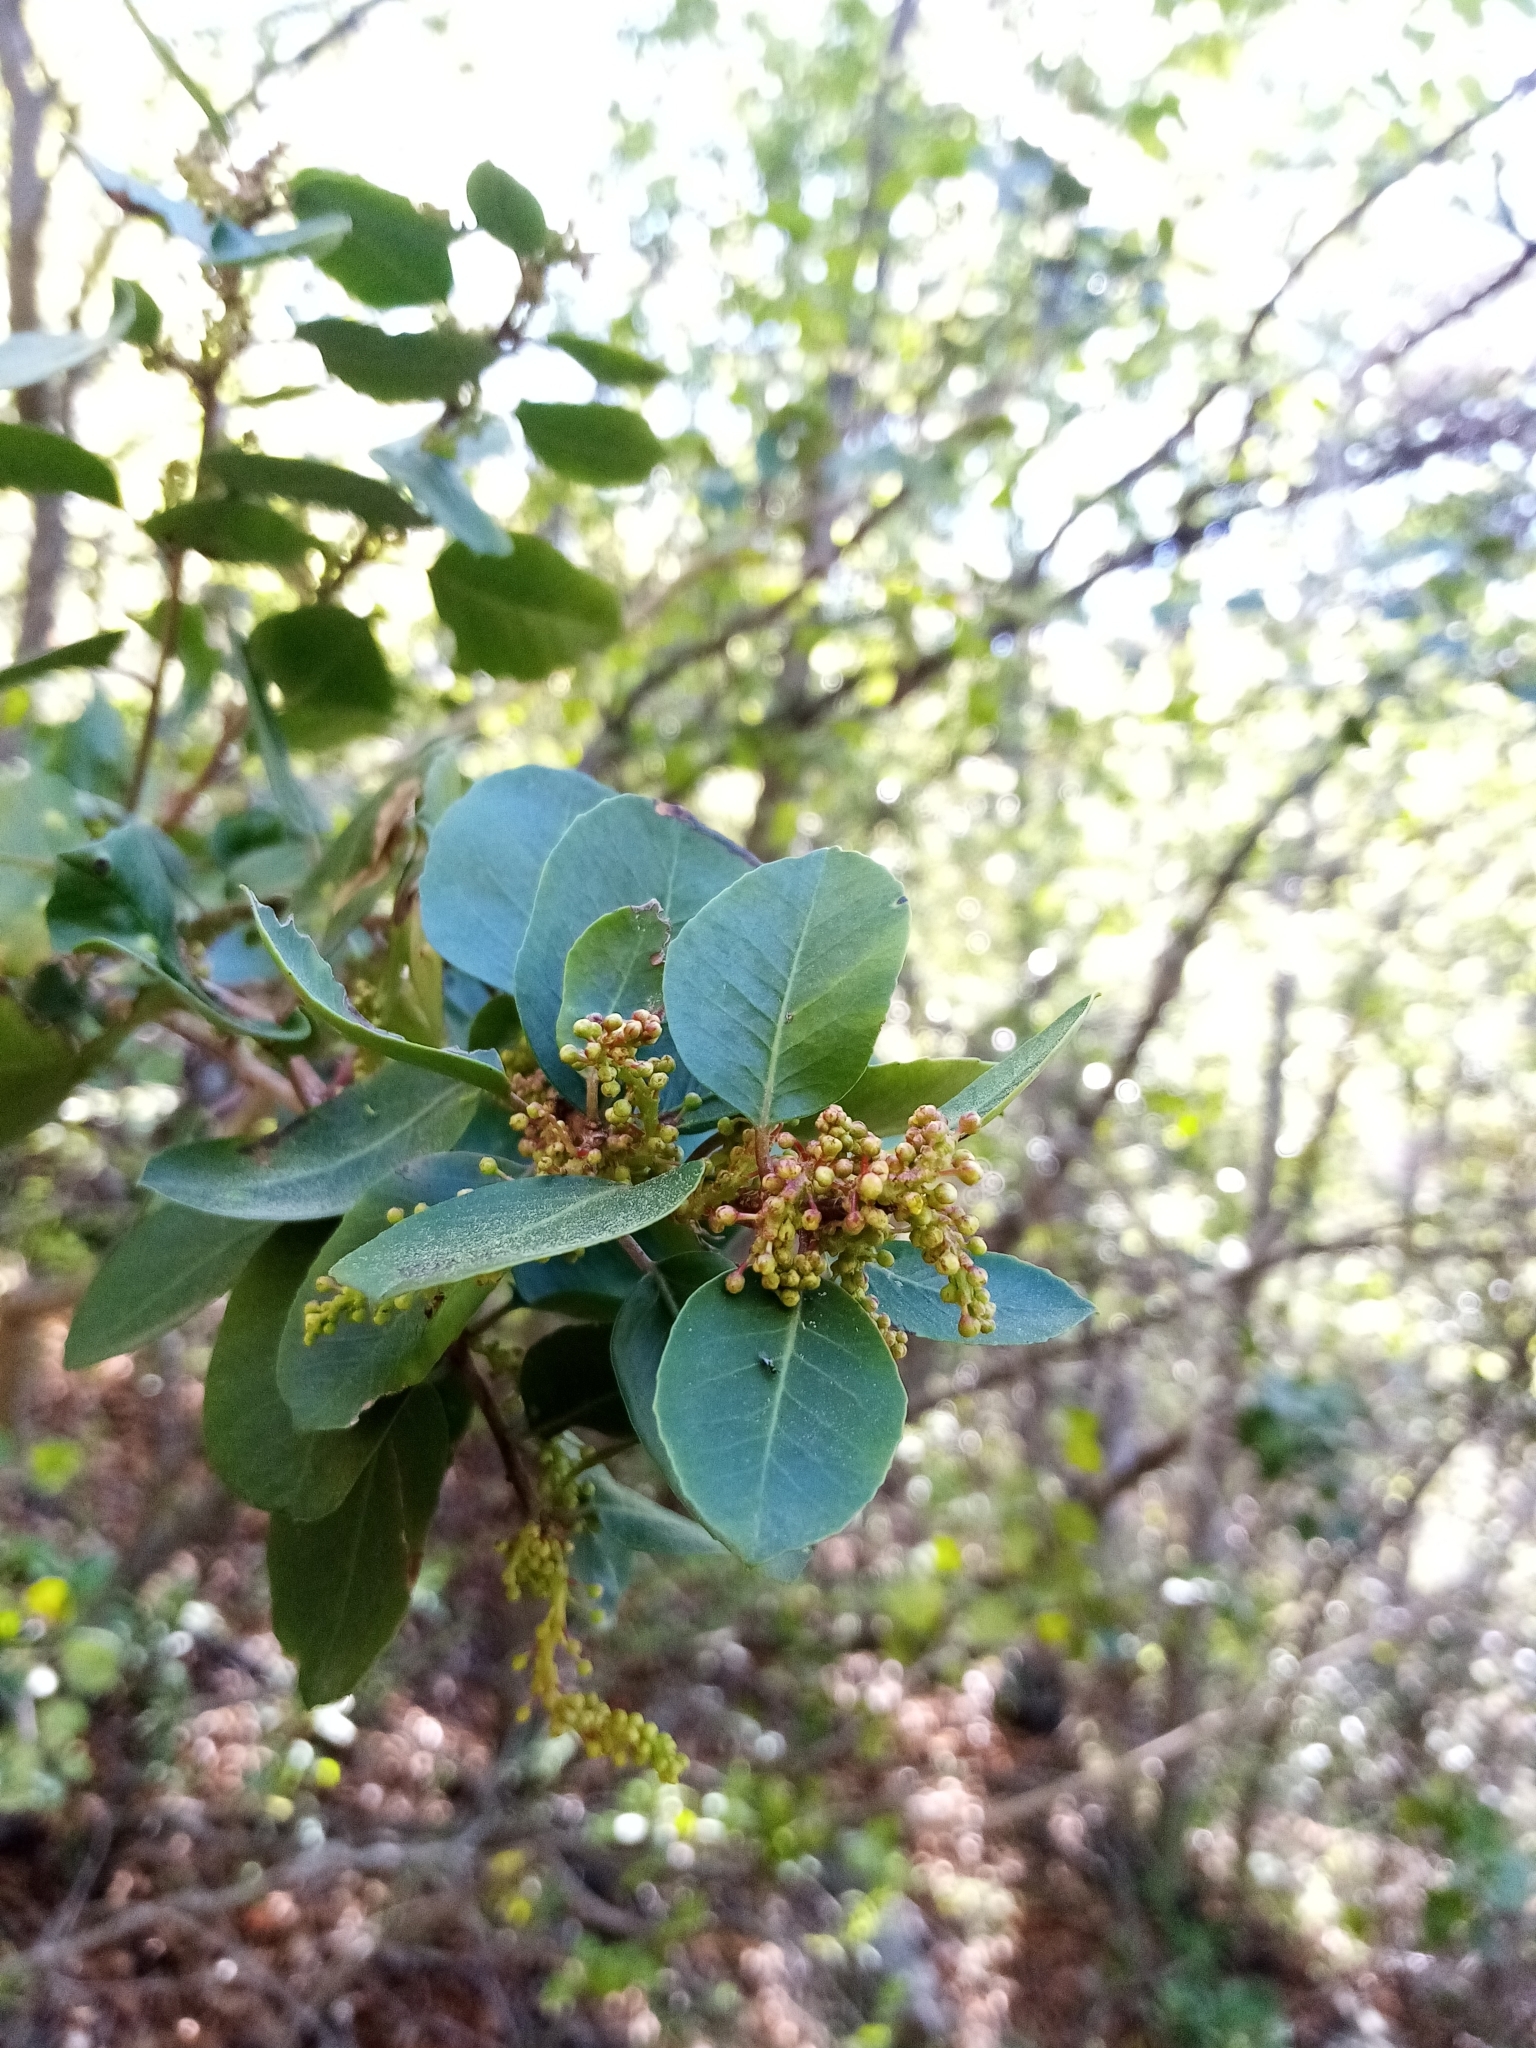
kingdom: Plantae
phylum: Tracheophyta
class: Magnoliopsida
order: Sapindales
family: Anacardiaceae
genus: Schinus
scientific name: Schinus montana
